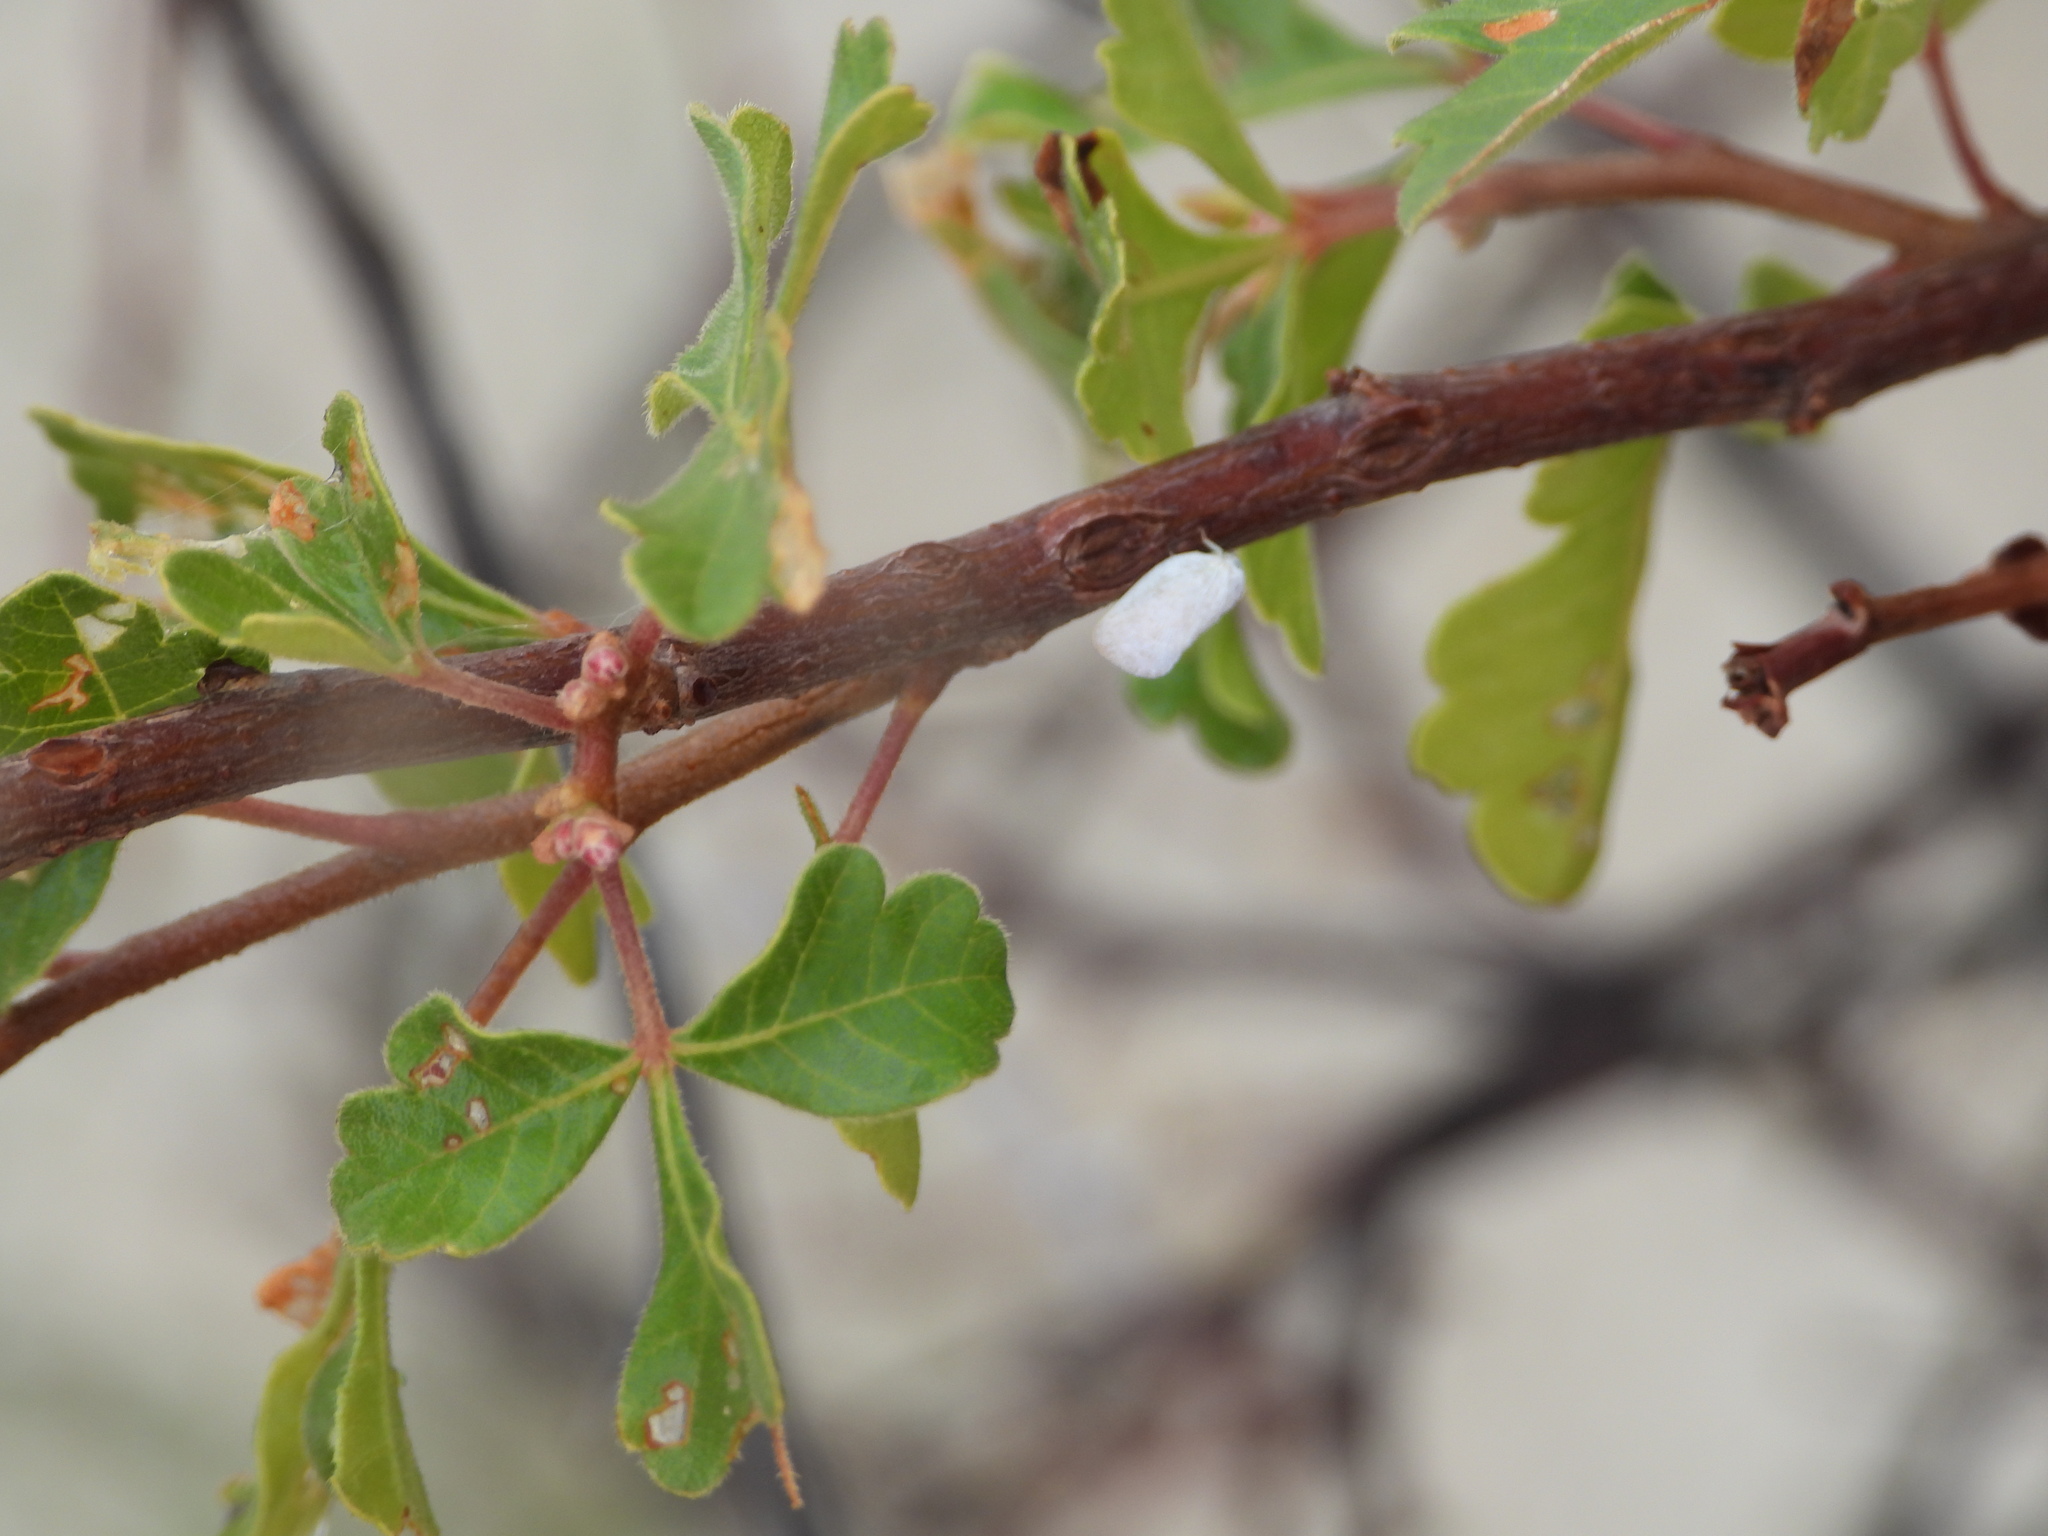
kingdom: Animalia
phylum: Arthropoda
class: Insecta
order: Hemiptera
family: Flatidae
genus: Flatormenis
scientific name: Flatormenis saucia
